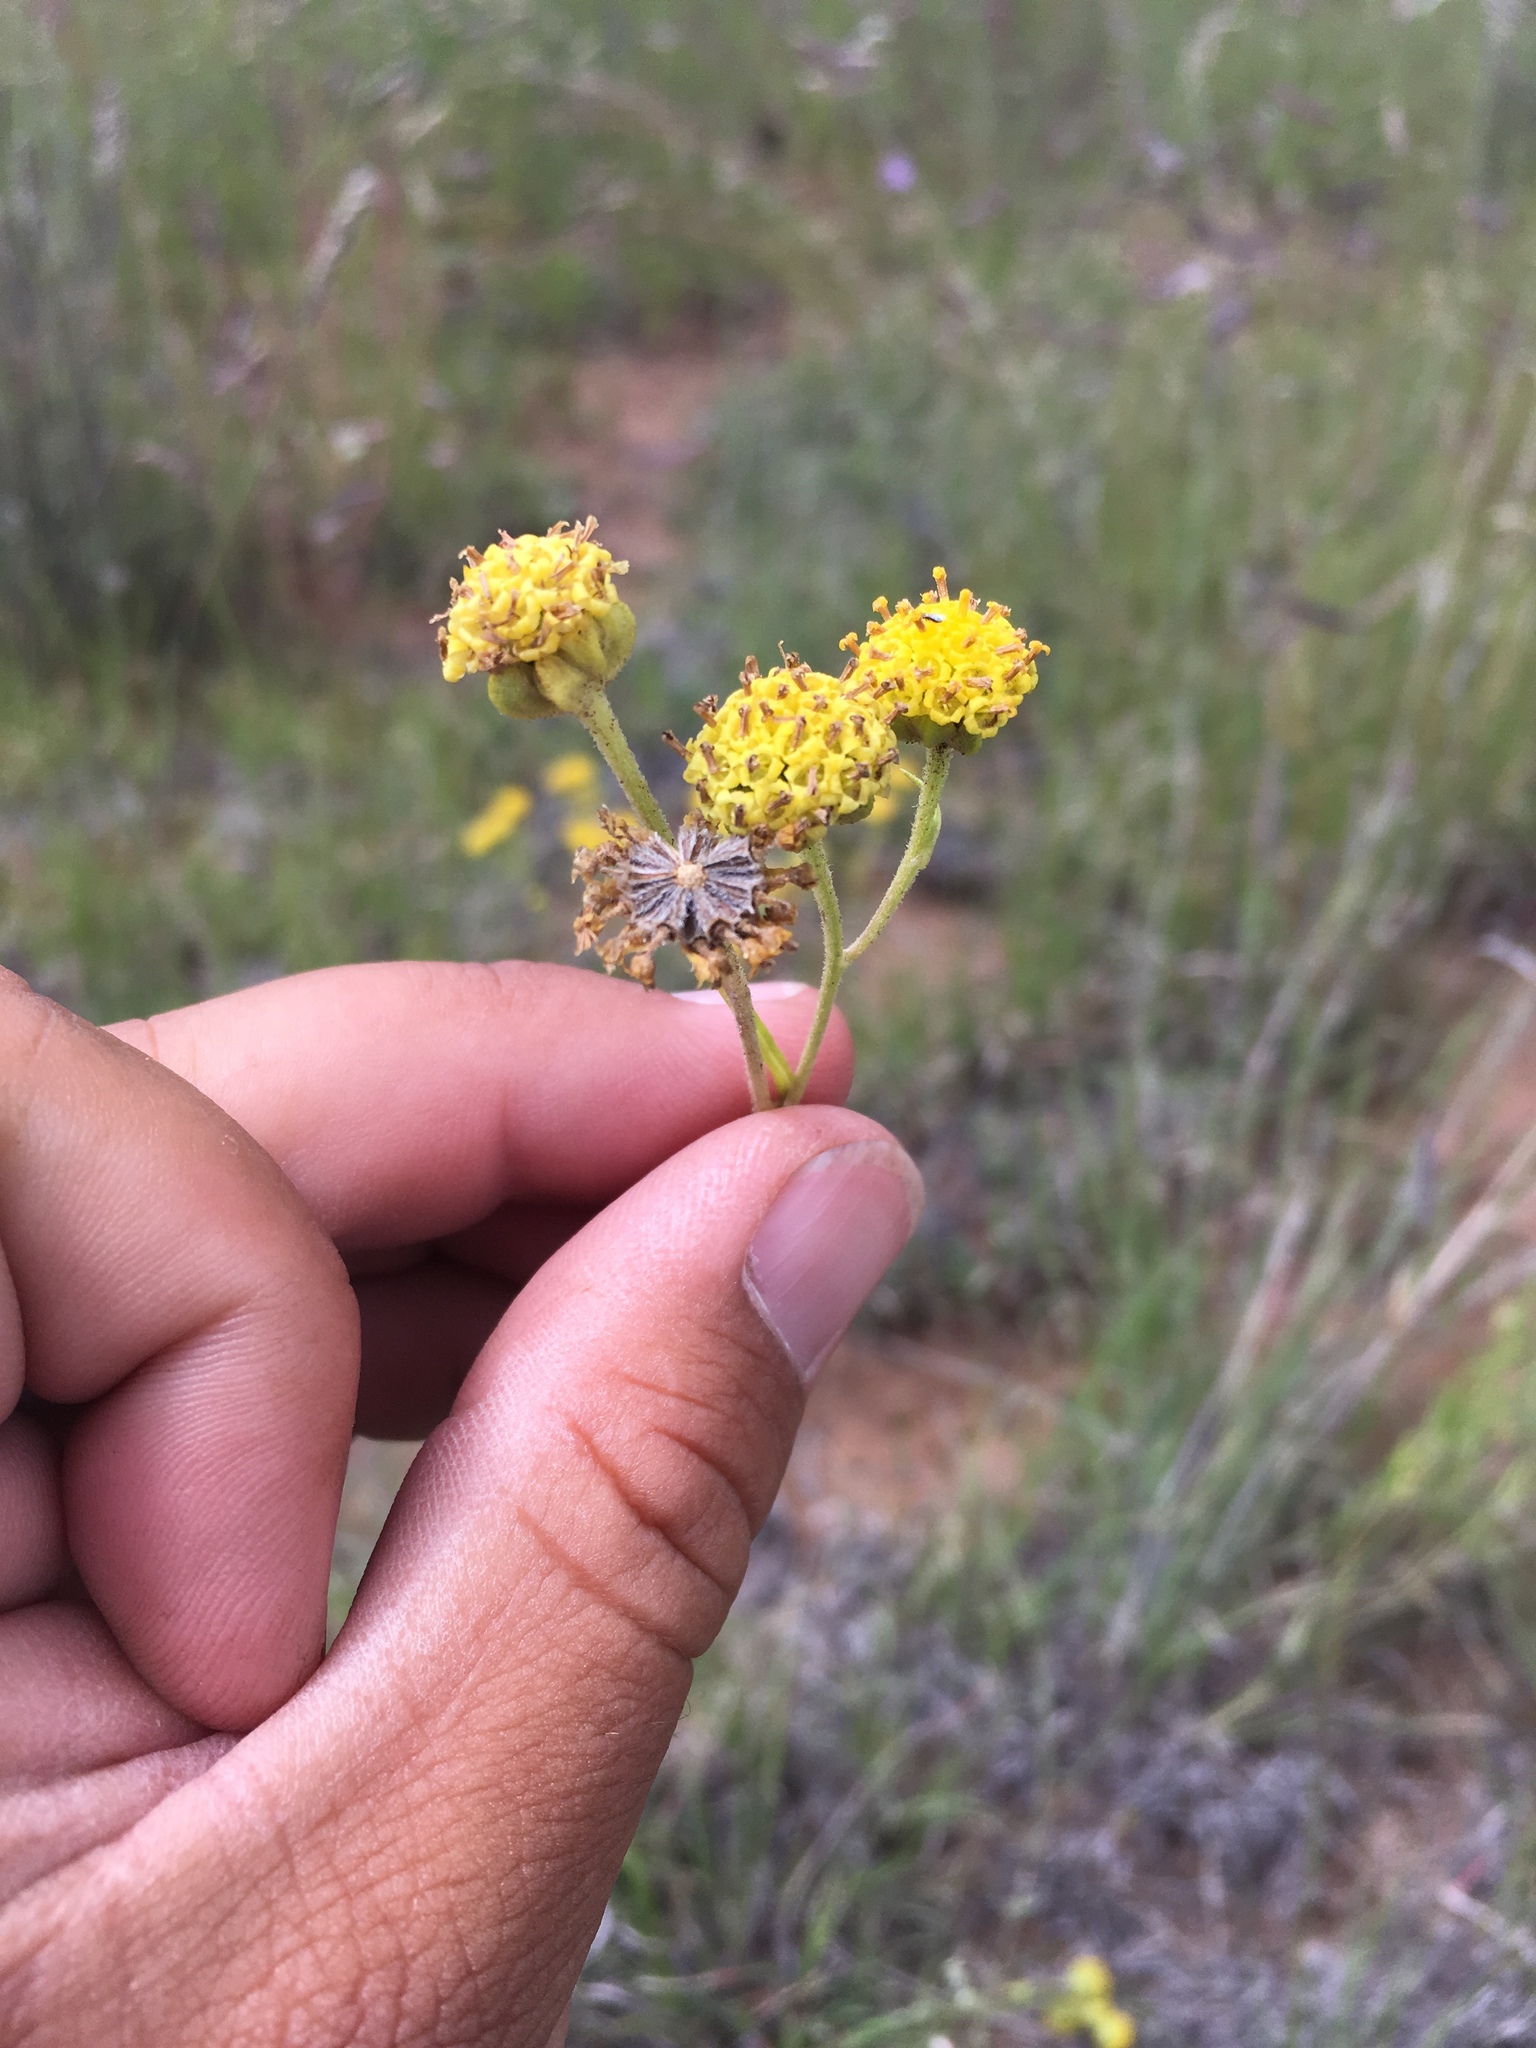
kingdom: Plantae
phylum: Tracheophyta
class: Magnoliopsida
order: Asterales
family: Asteraceae
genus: Hymenopappus
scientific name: Hymenopappus mexicanus
